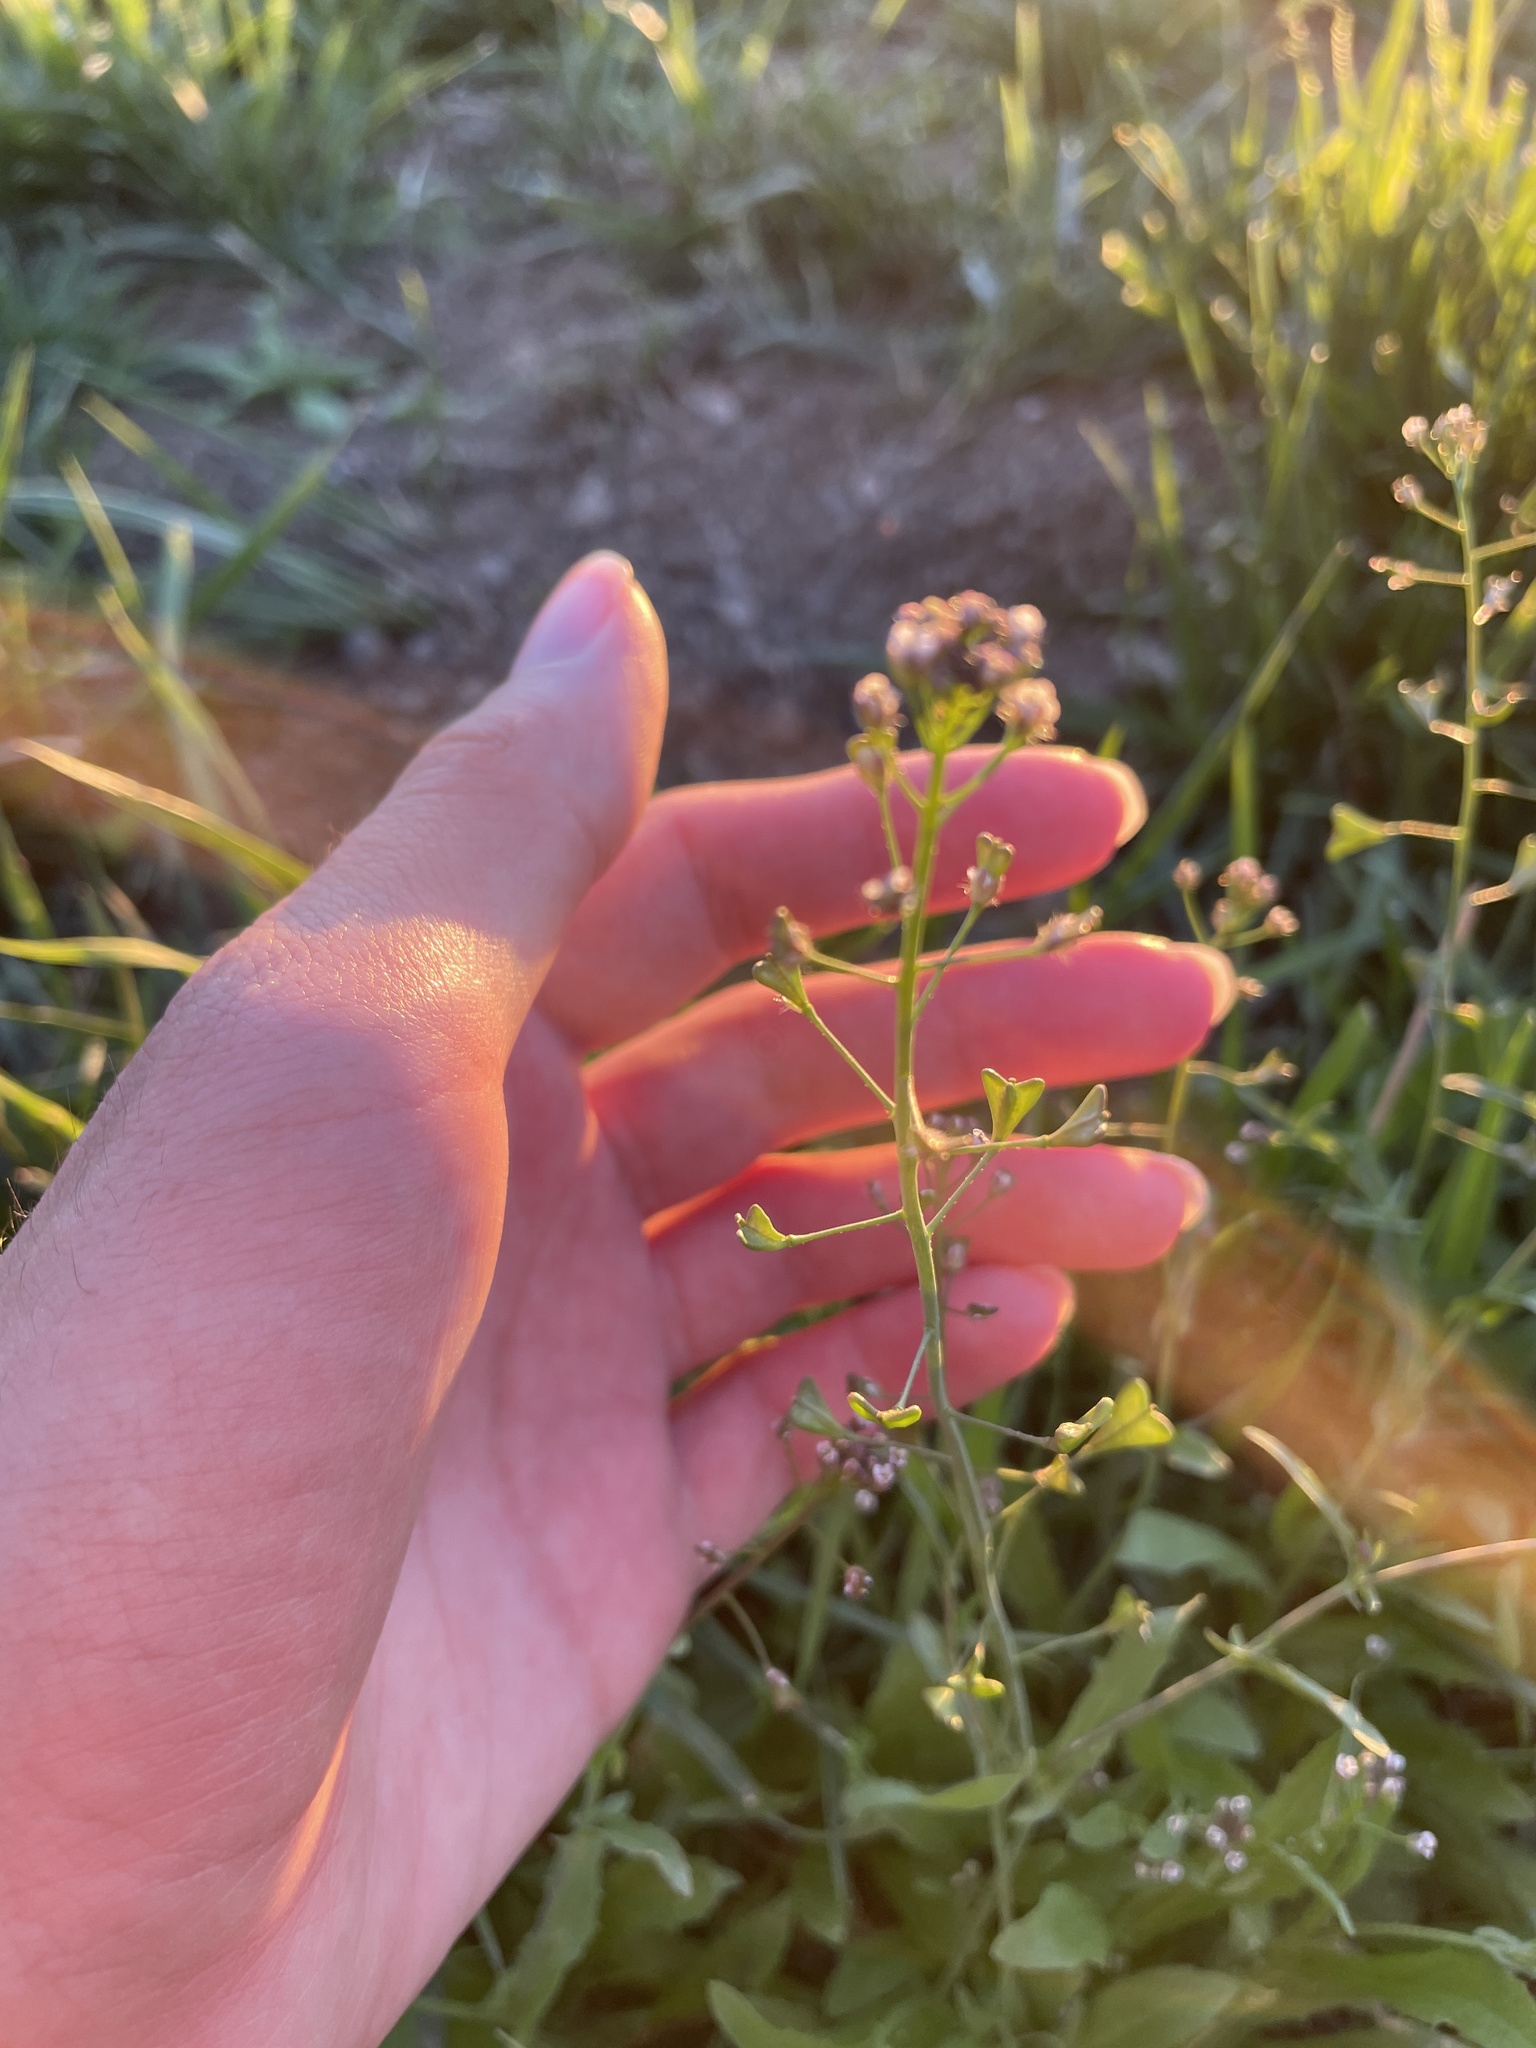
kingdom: Plantae
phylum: Tracheophyta
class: Magnoliopsida
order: Brassicales
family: Brassicaceae
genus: Capsella
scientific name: Capsella bursa-pastoris
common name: Shepherd's purse
